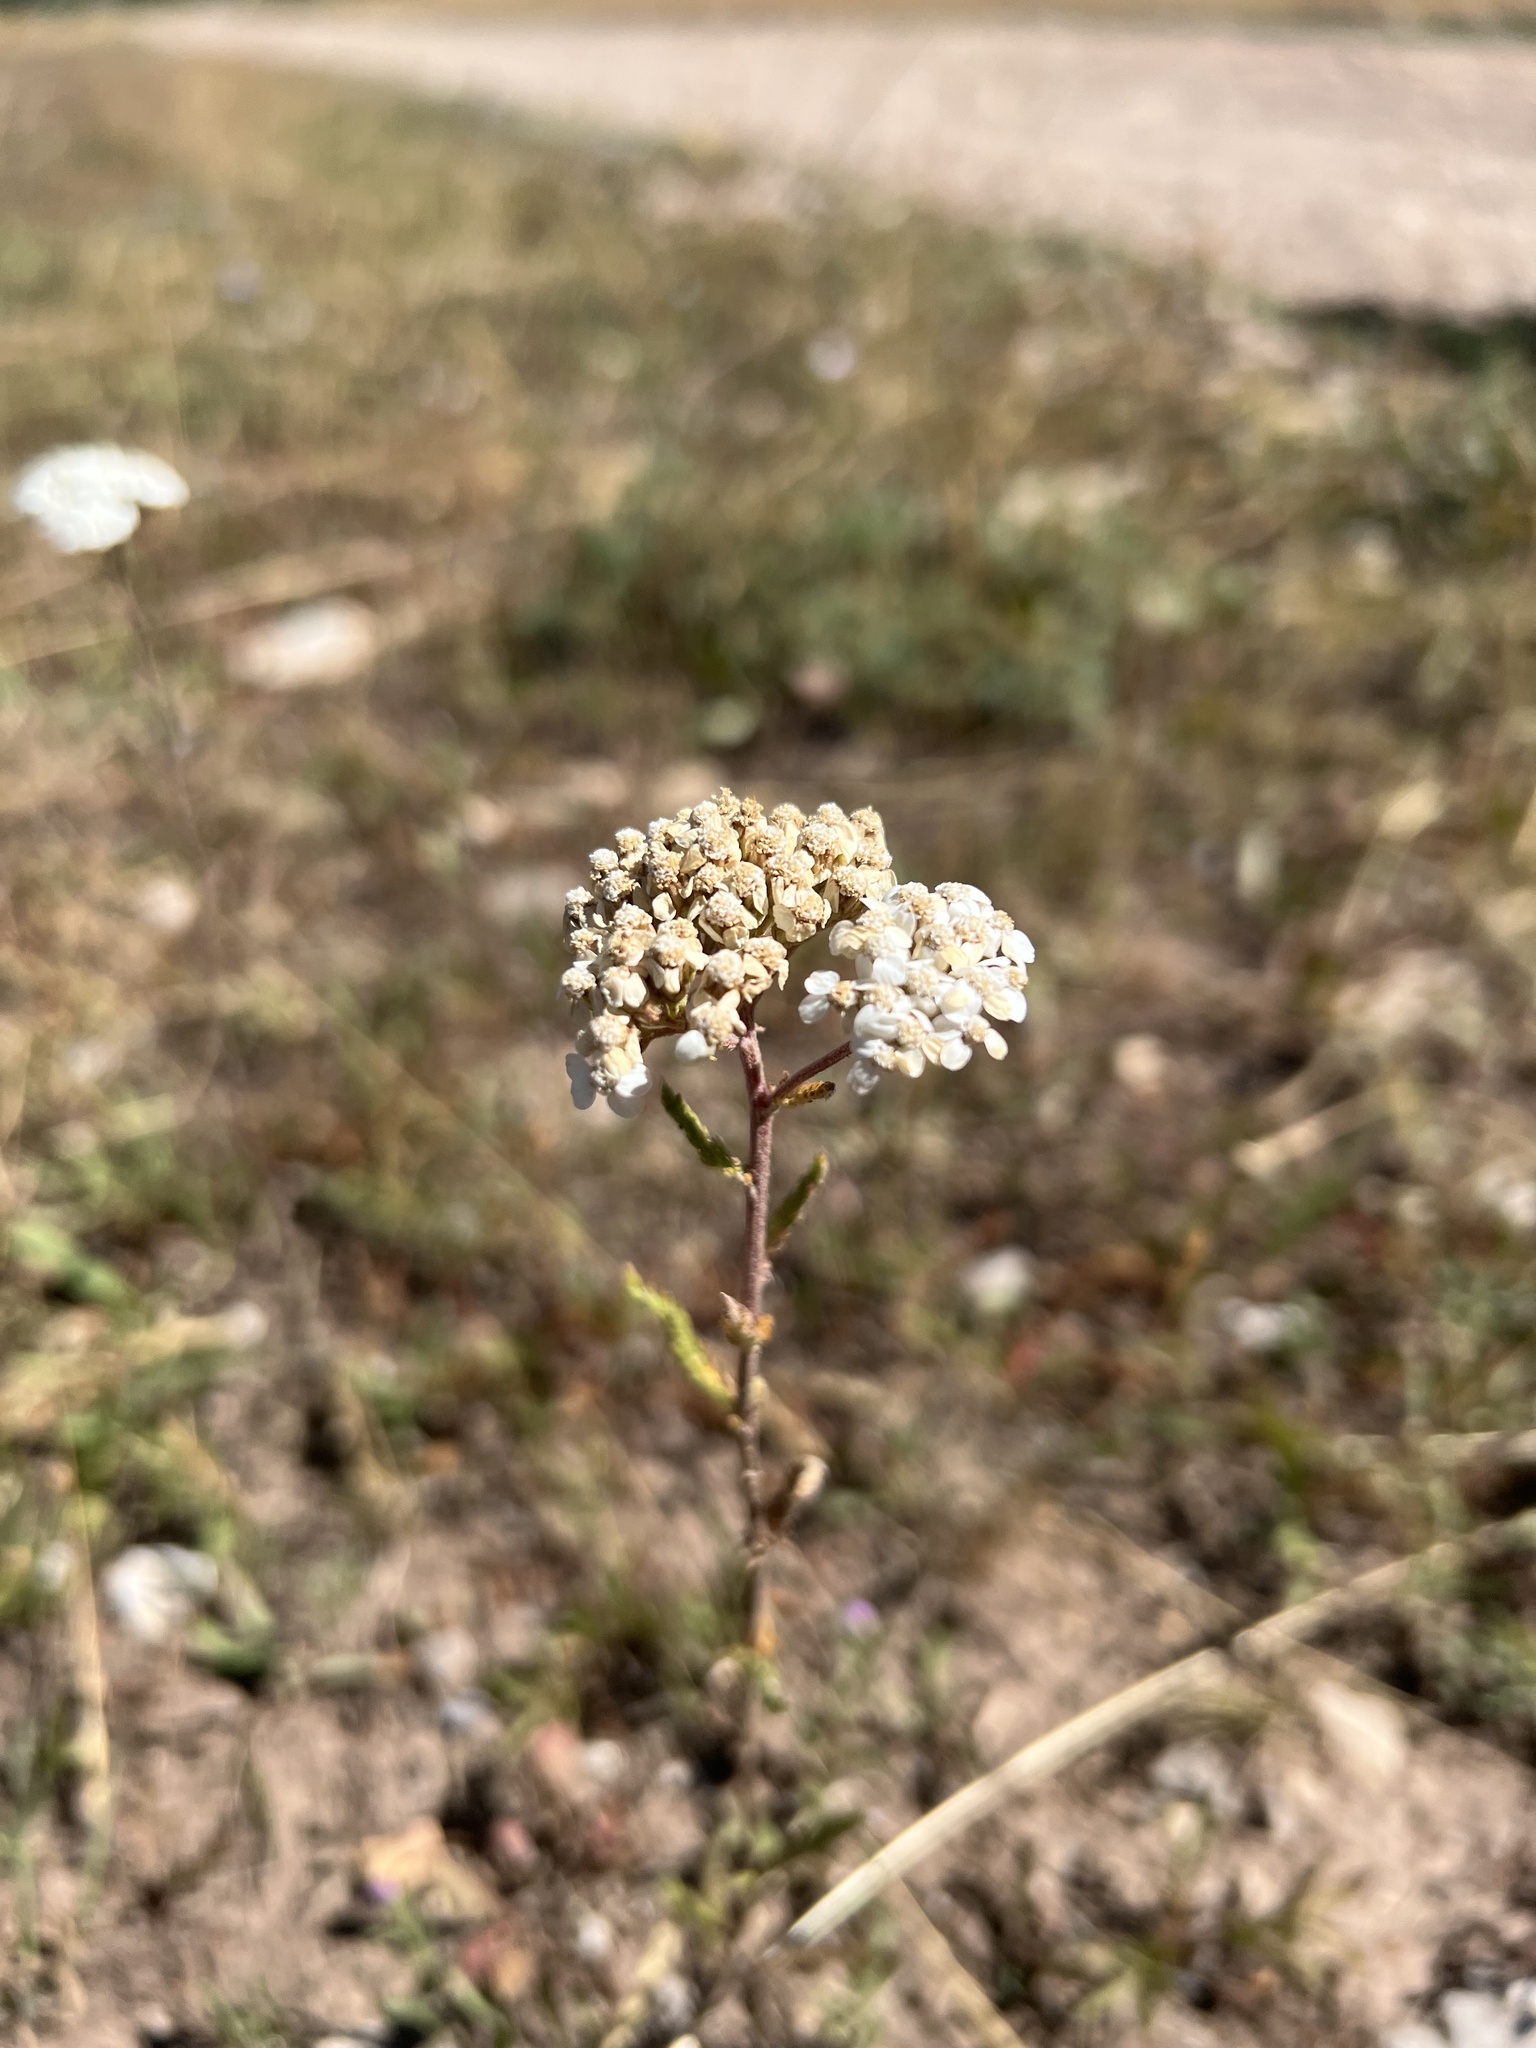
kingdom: Plantae
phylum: Tracheophyta
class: Magnoliopsida
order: Asterales
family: Asteraceae
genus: Achillea
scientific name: Achillea millefolium
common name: Yarrow
